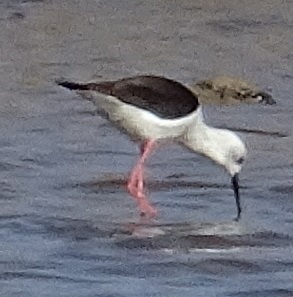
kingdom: Animalia
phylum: Chordata
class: Aves
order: Charadriiformes
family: Recurvirostridae
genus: Himantopus
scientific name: Himantopus himantopus
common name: Black-winged stilt
